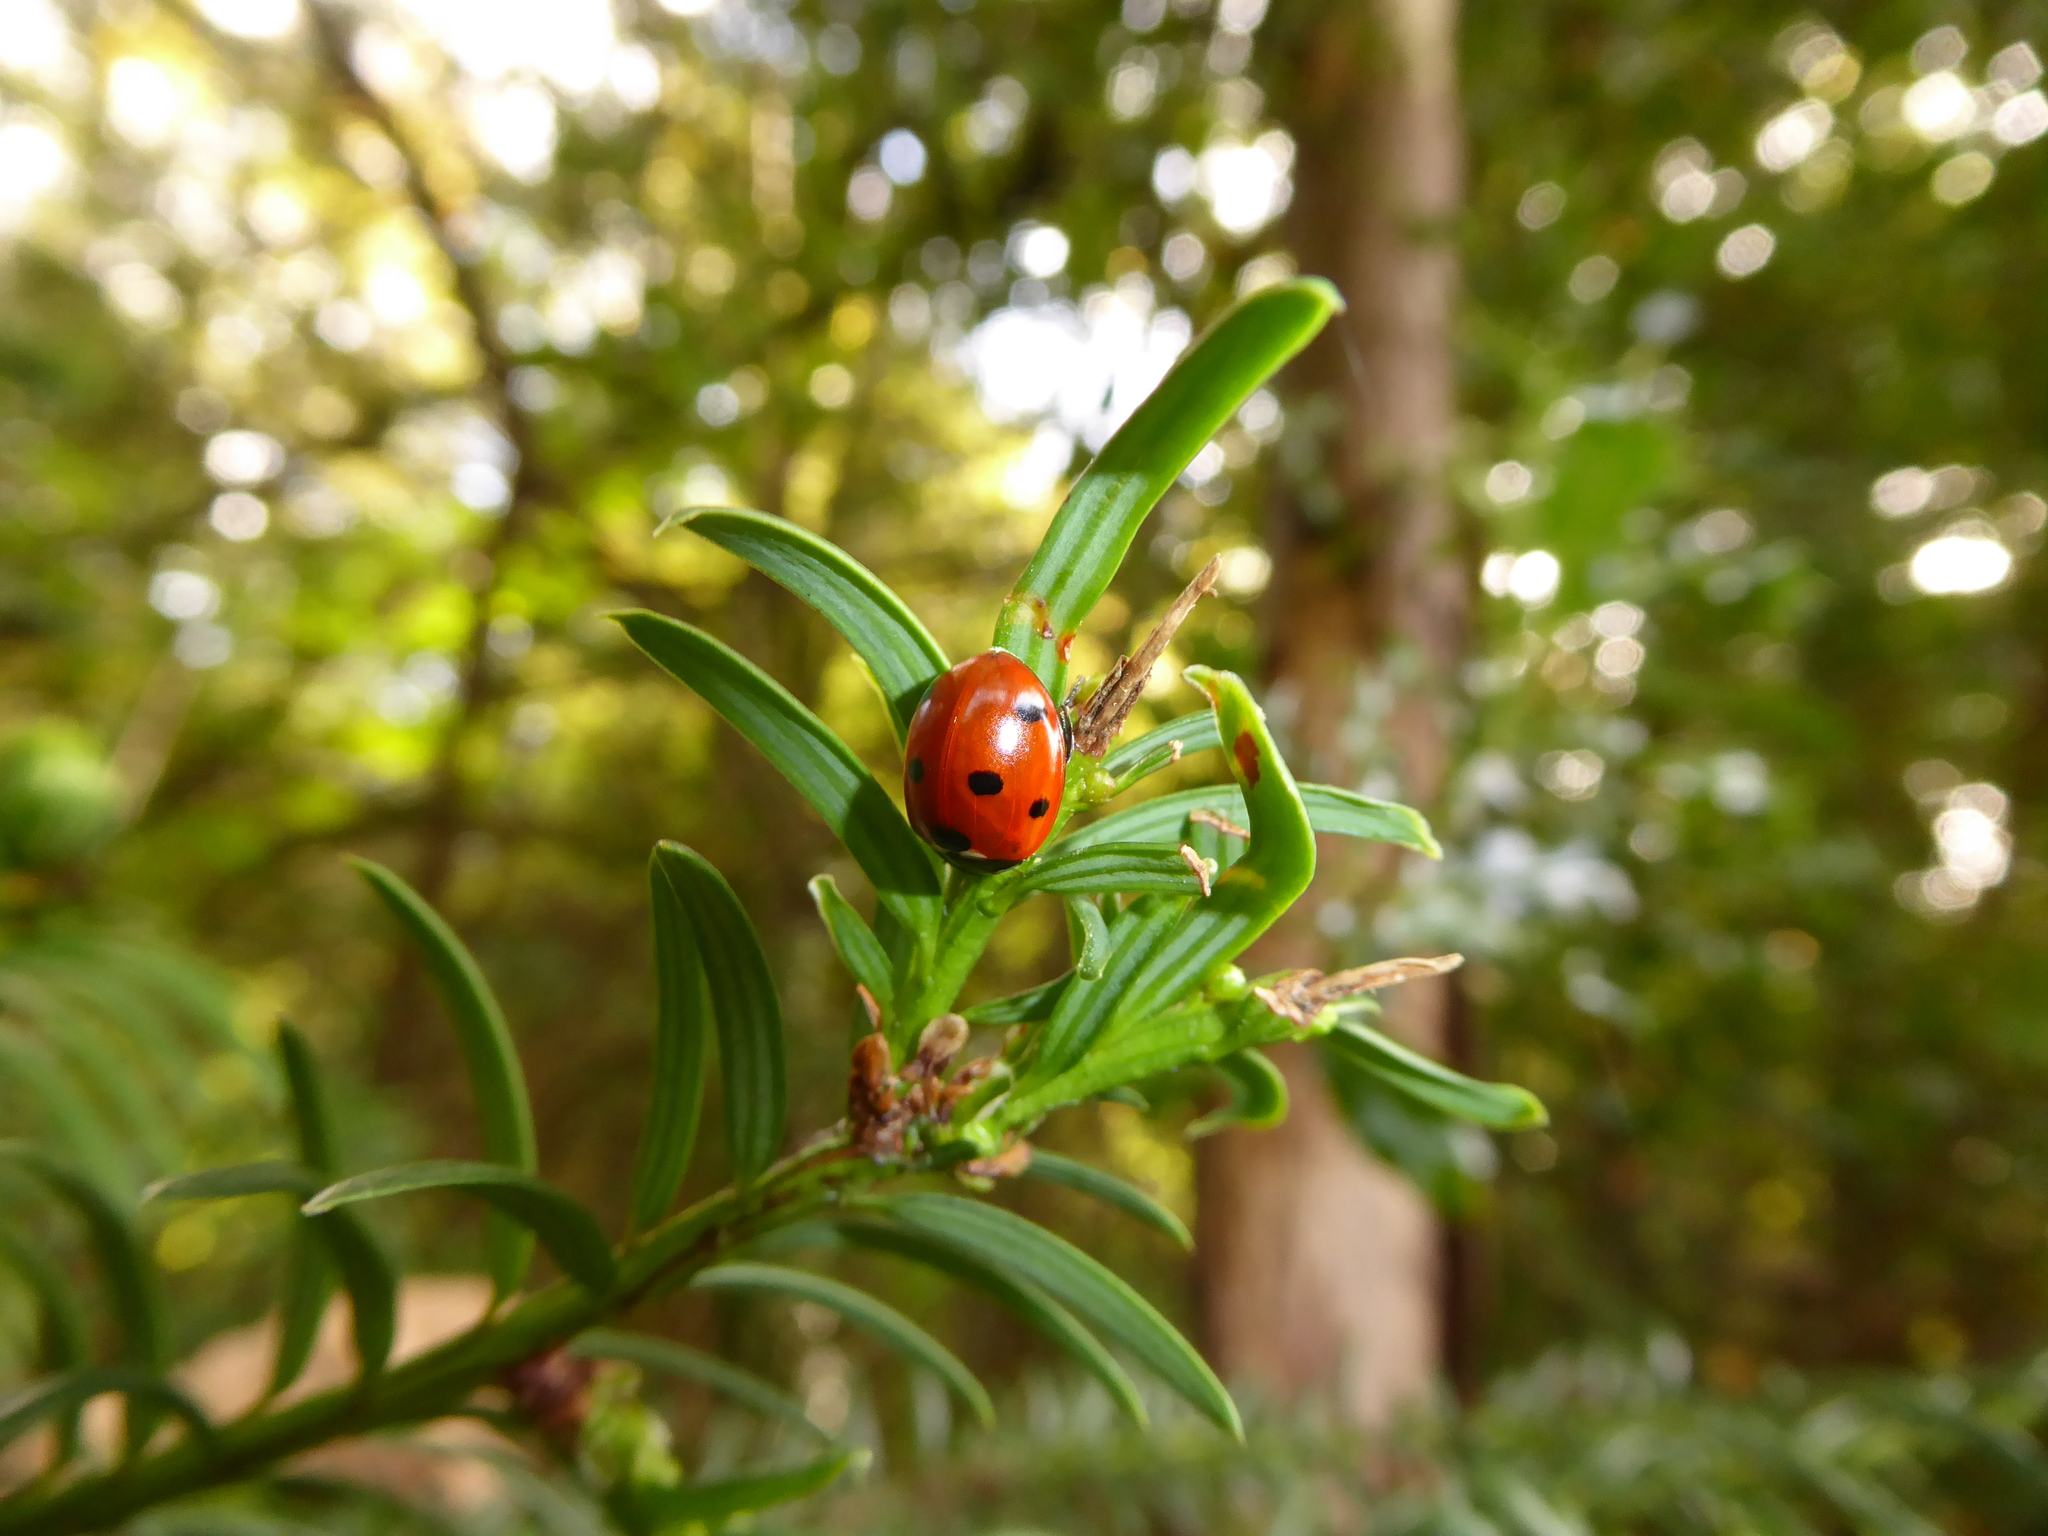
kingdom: Animalia
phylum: Arthropoda
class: Insecta
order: Coleoptera
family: Coccinellidae
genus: Coccinella
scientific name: Coccinella septempunctata
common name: Sevenspotted lady beetle
